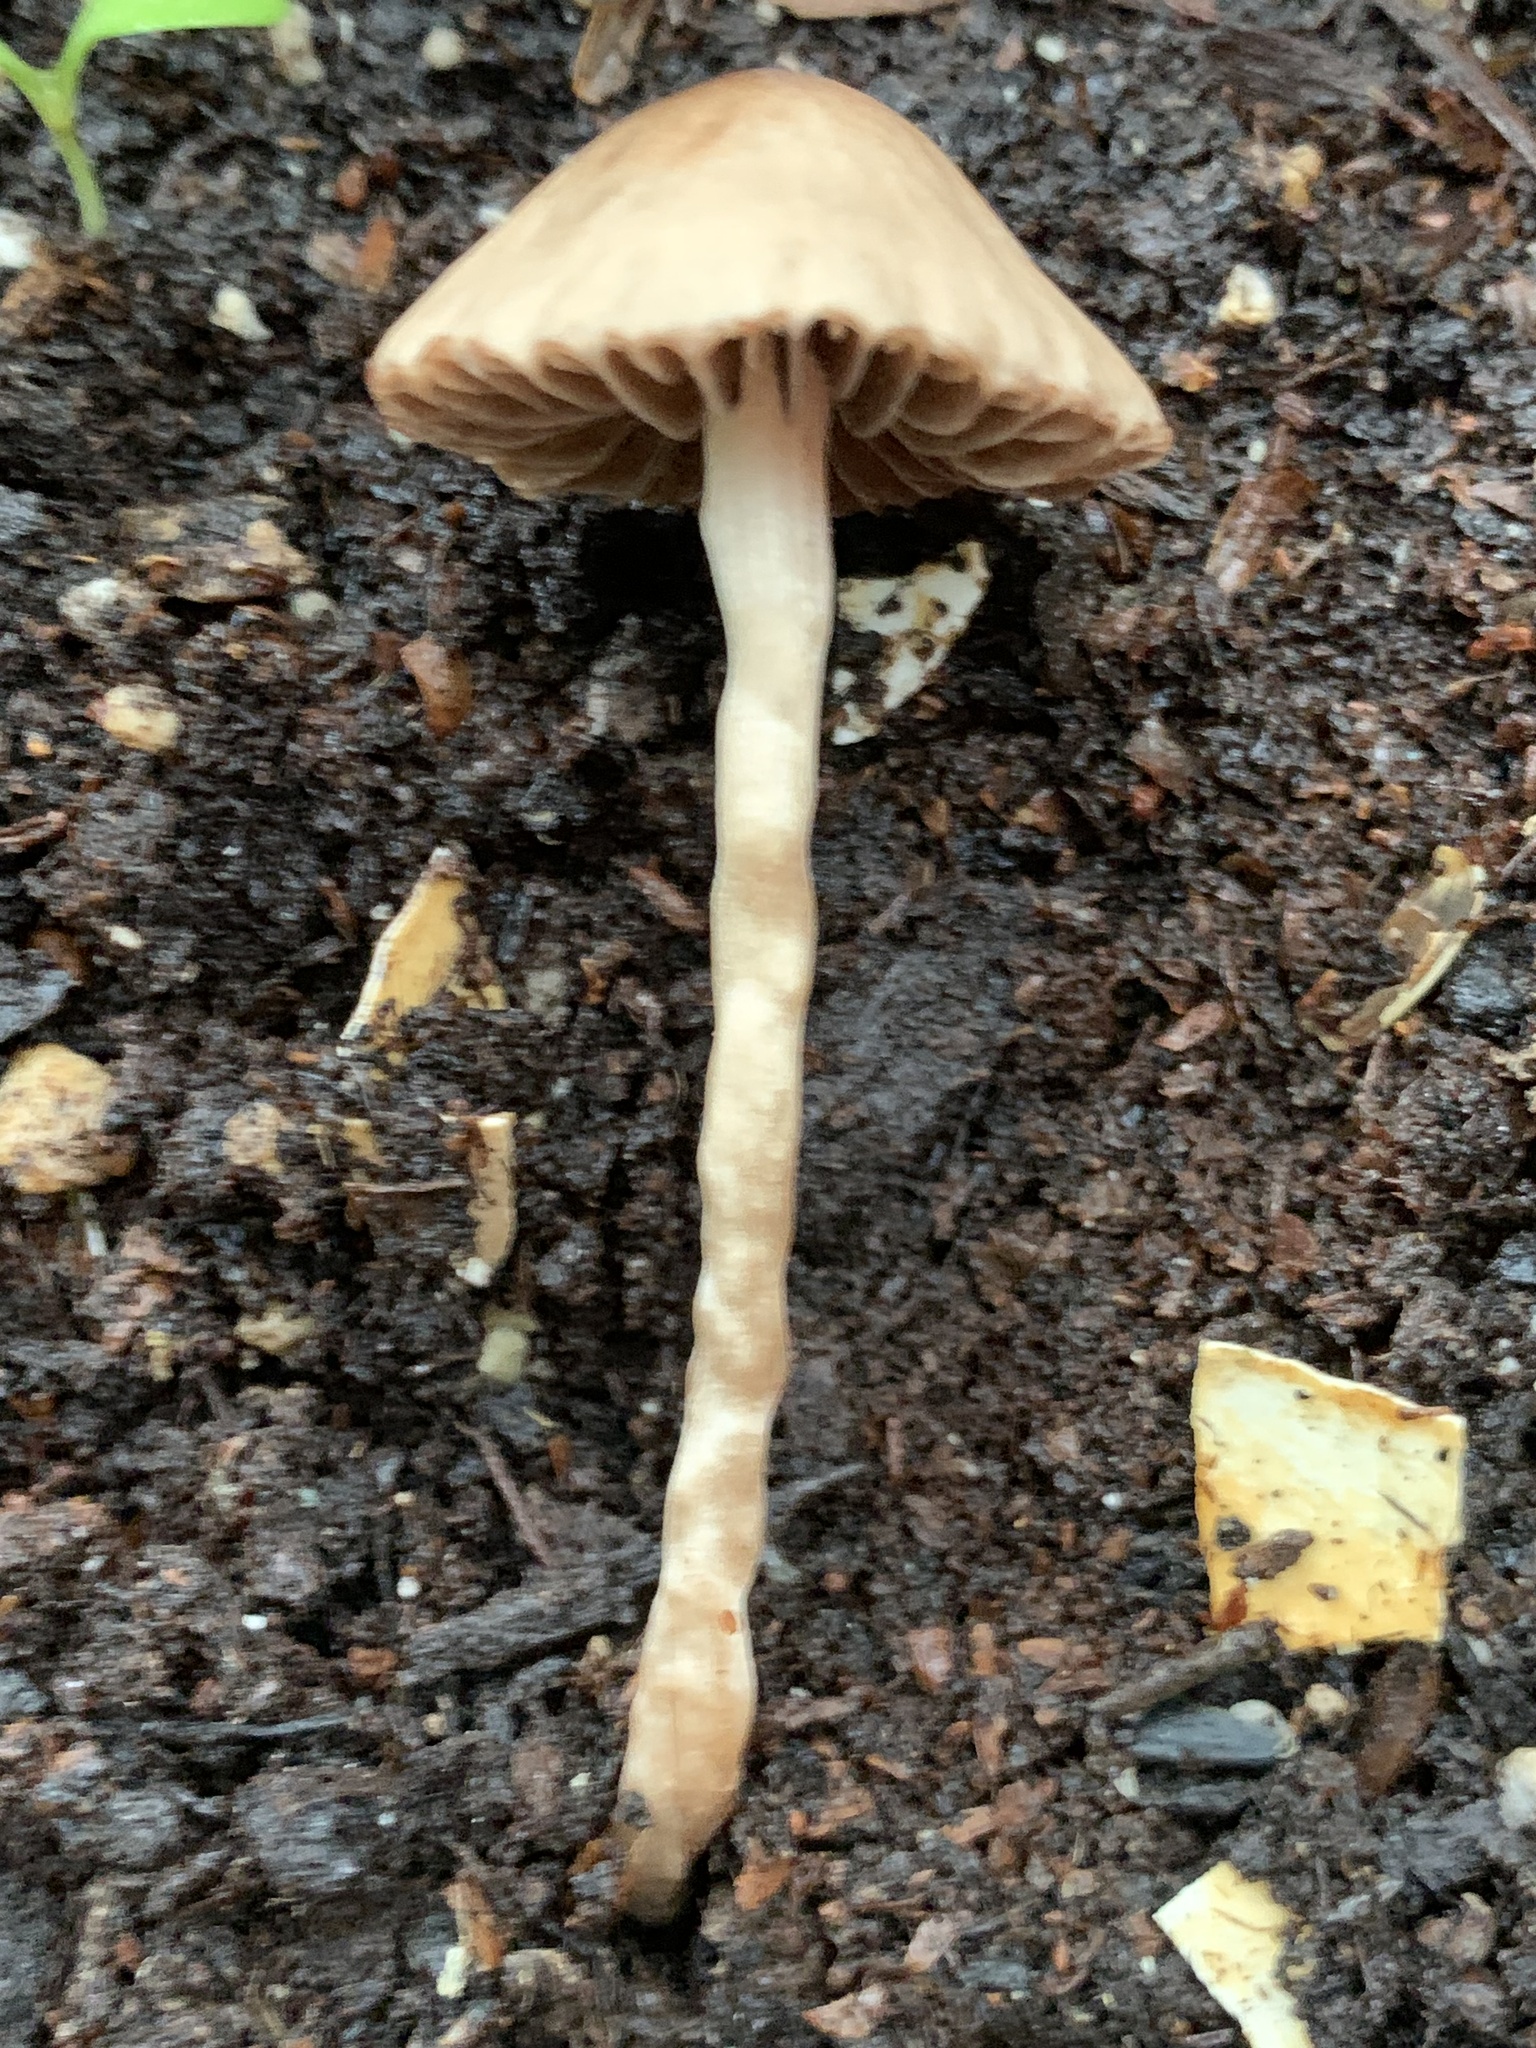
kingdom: Fungi
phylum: Basidiomycota
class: Agaricomycetes
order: Agaricales
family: Bolbitiaceae
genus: Conocybe
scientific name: Conocybe tenera
